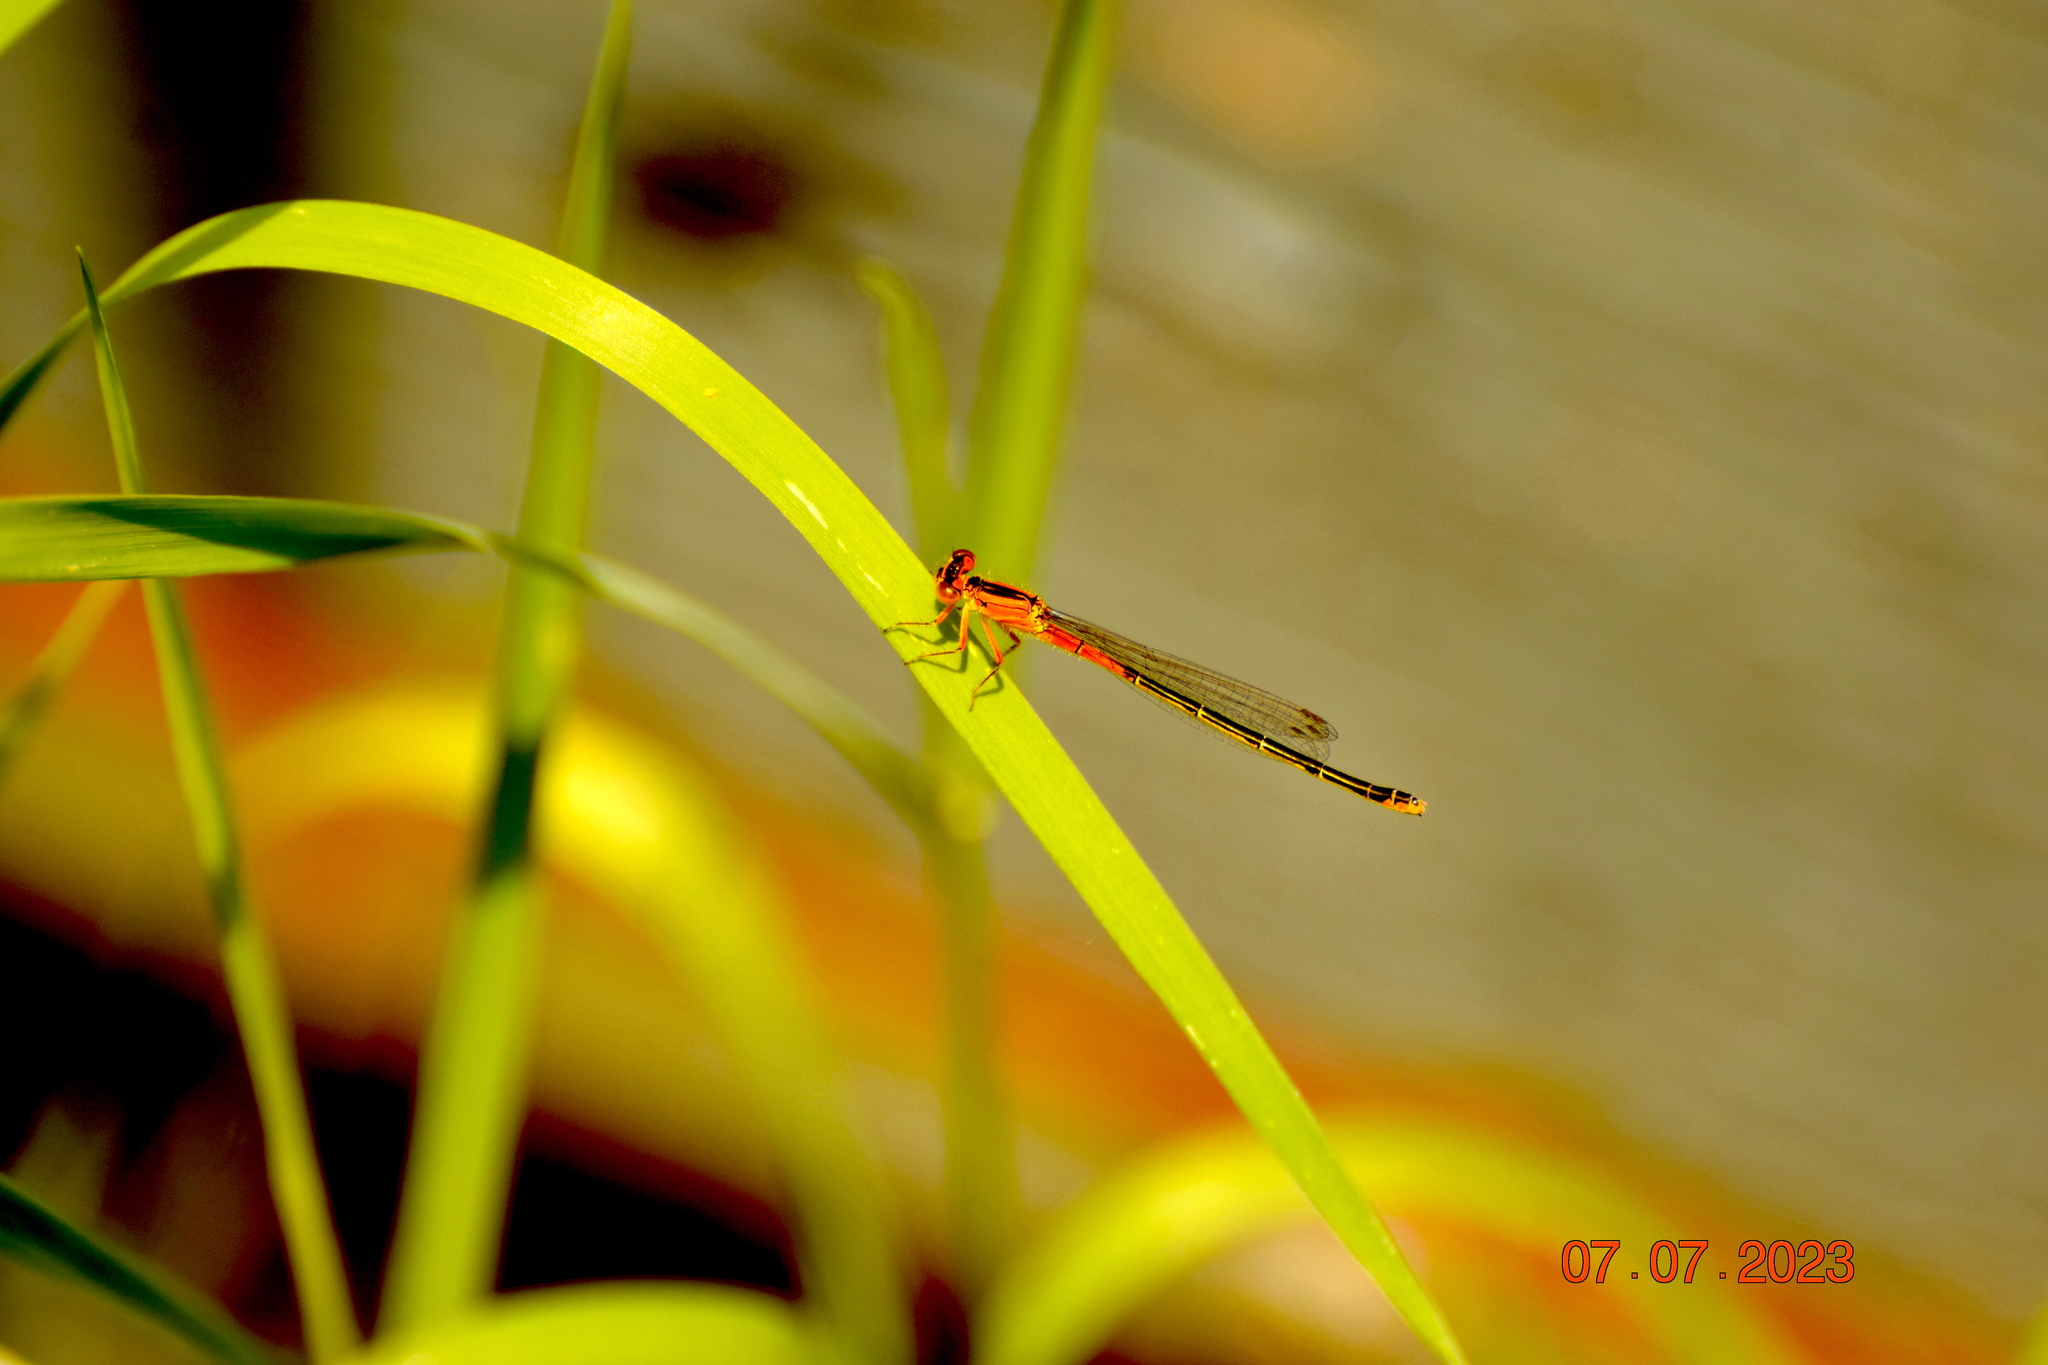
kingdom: Animalia
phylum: Arthropoda
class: Insecta
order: Odonata
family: Coenagrionidae
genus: Ischnura
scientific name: Ischnura verticalis
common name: Eastern forktail
